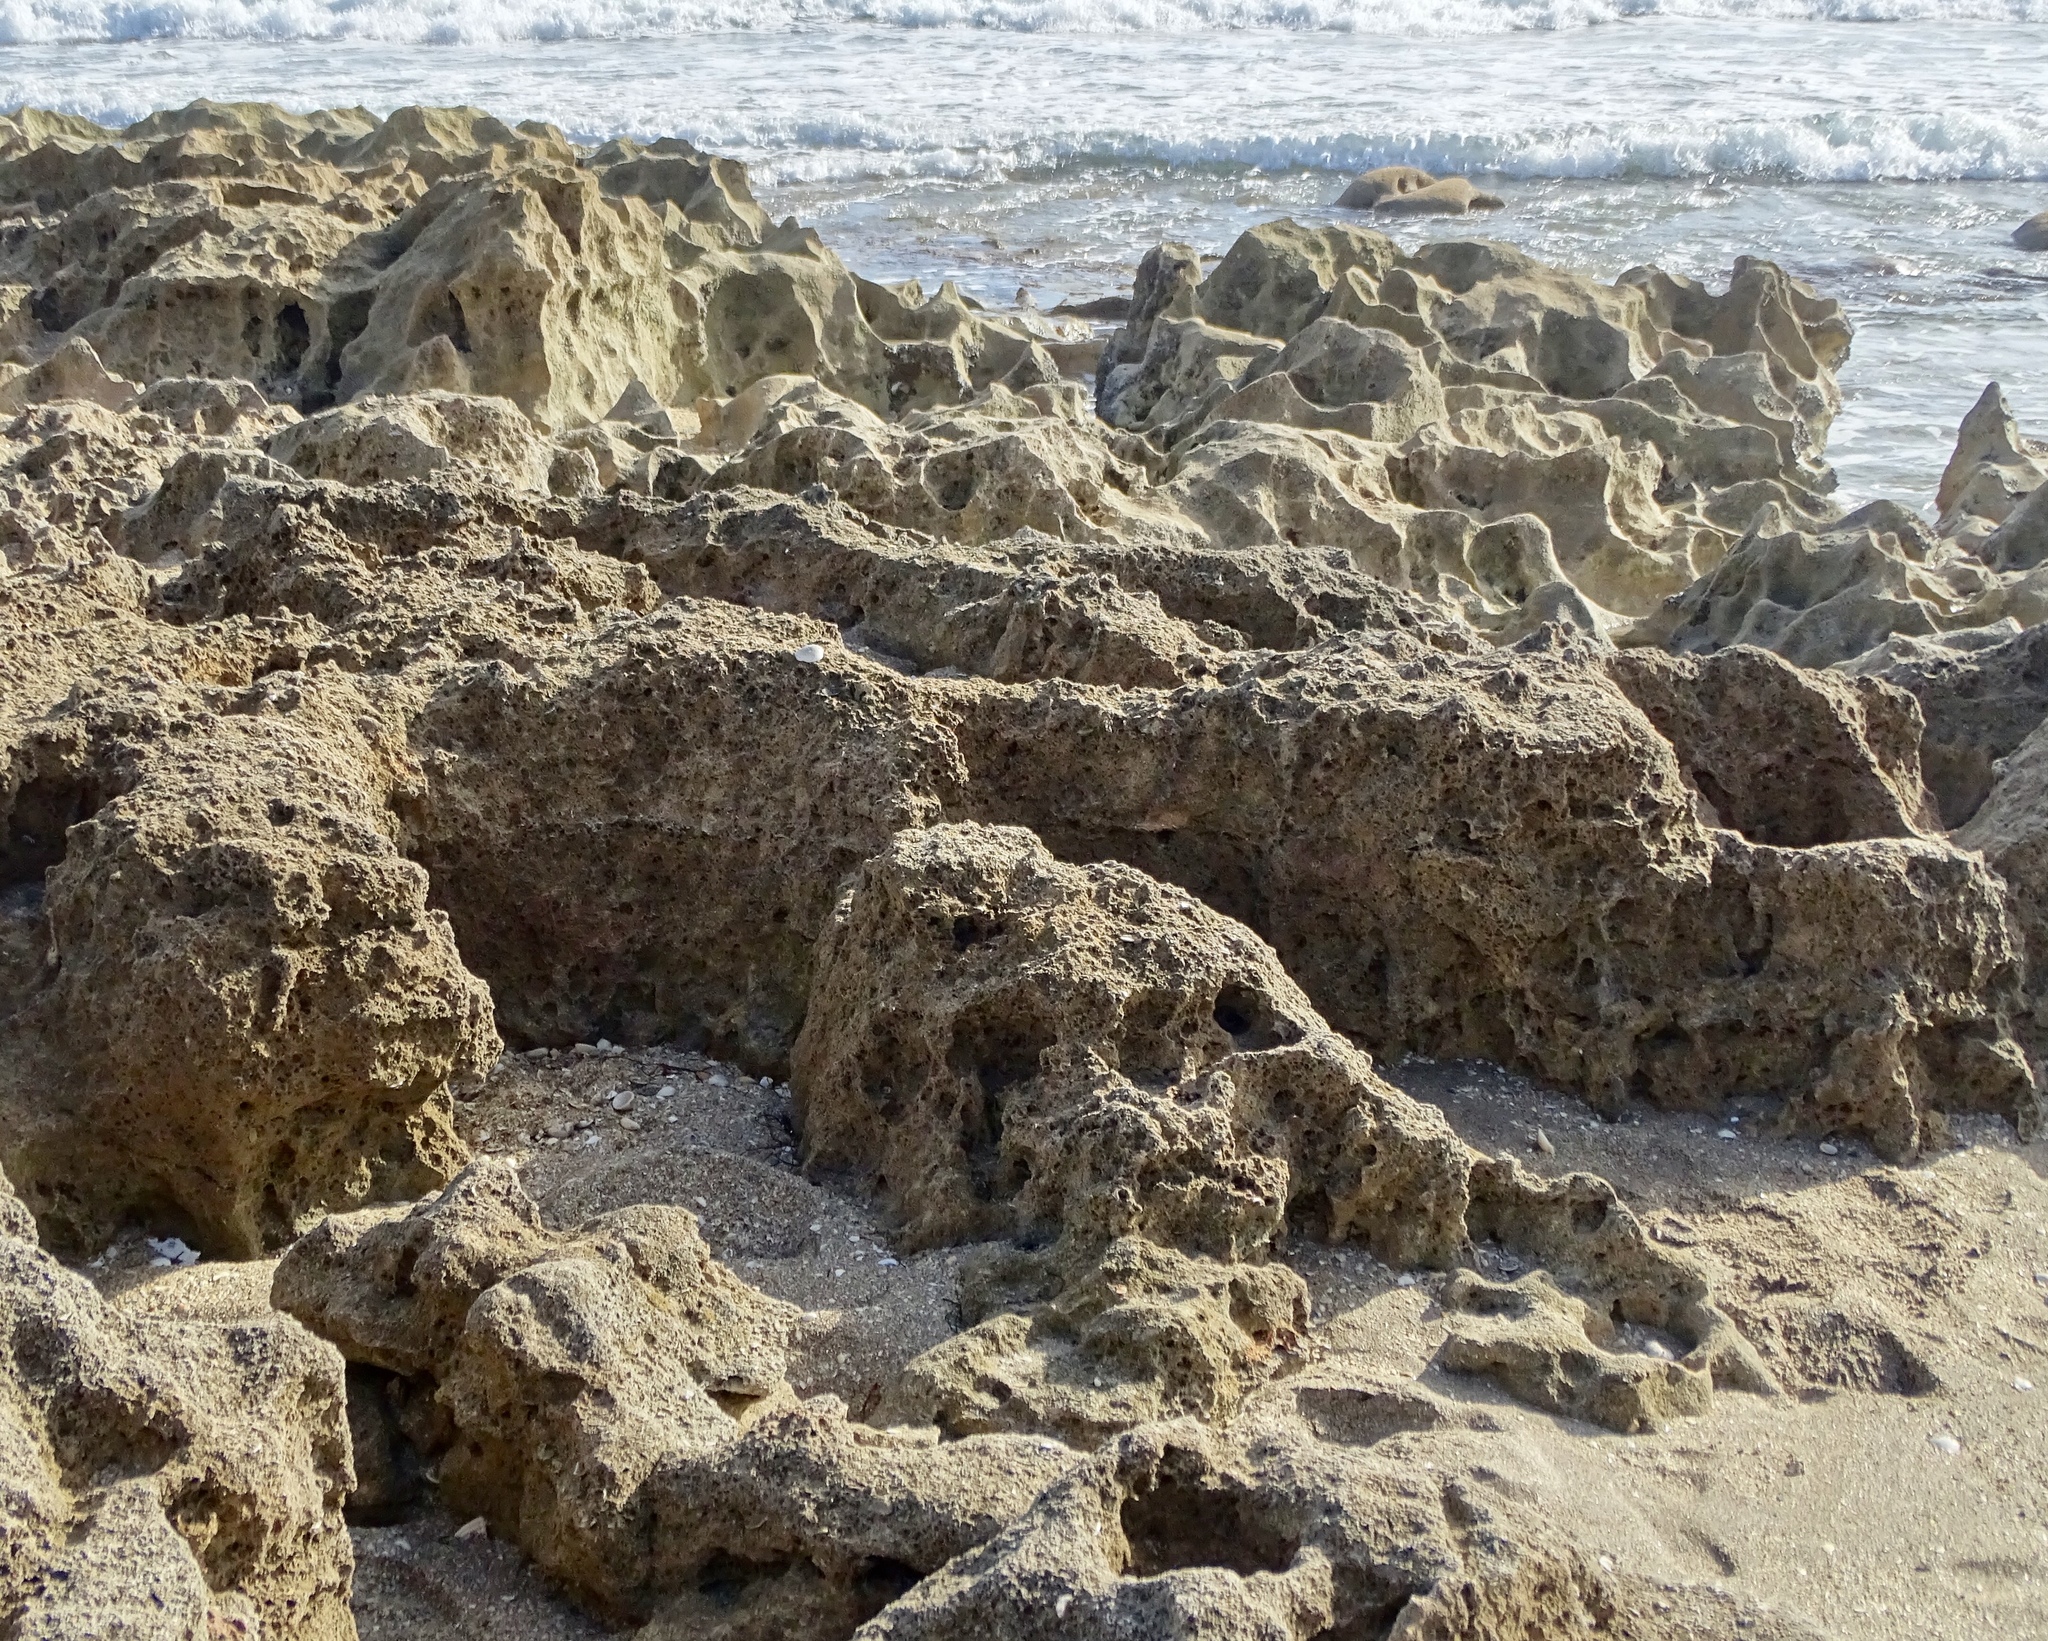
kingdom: Animalia
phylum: Arthropoda
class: Maxillopoda
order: Sessilia
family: Chthamalidae
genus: Chthamalus
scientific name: Chthamalus fragilis
